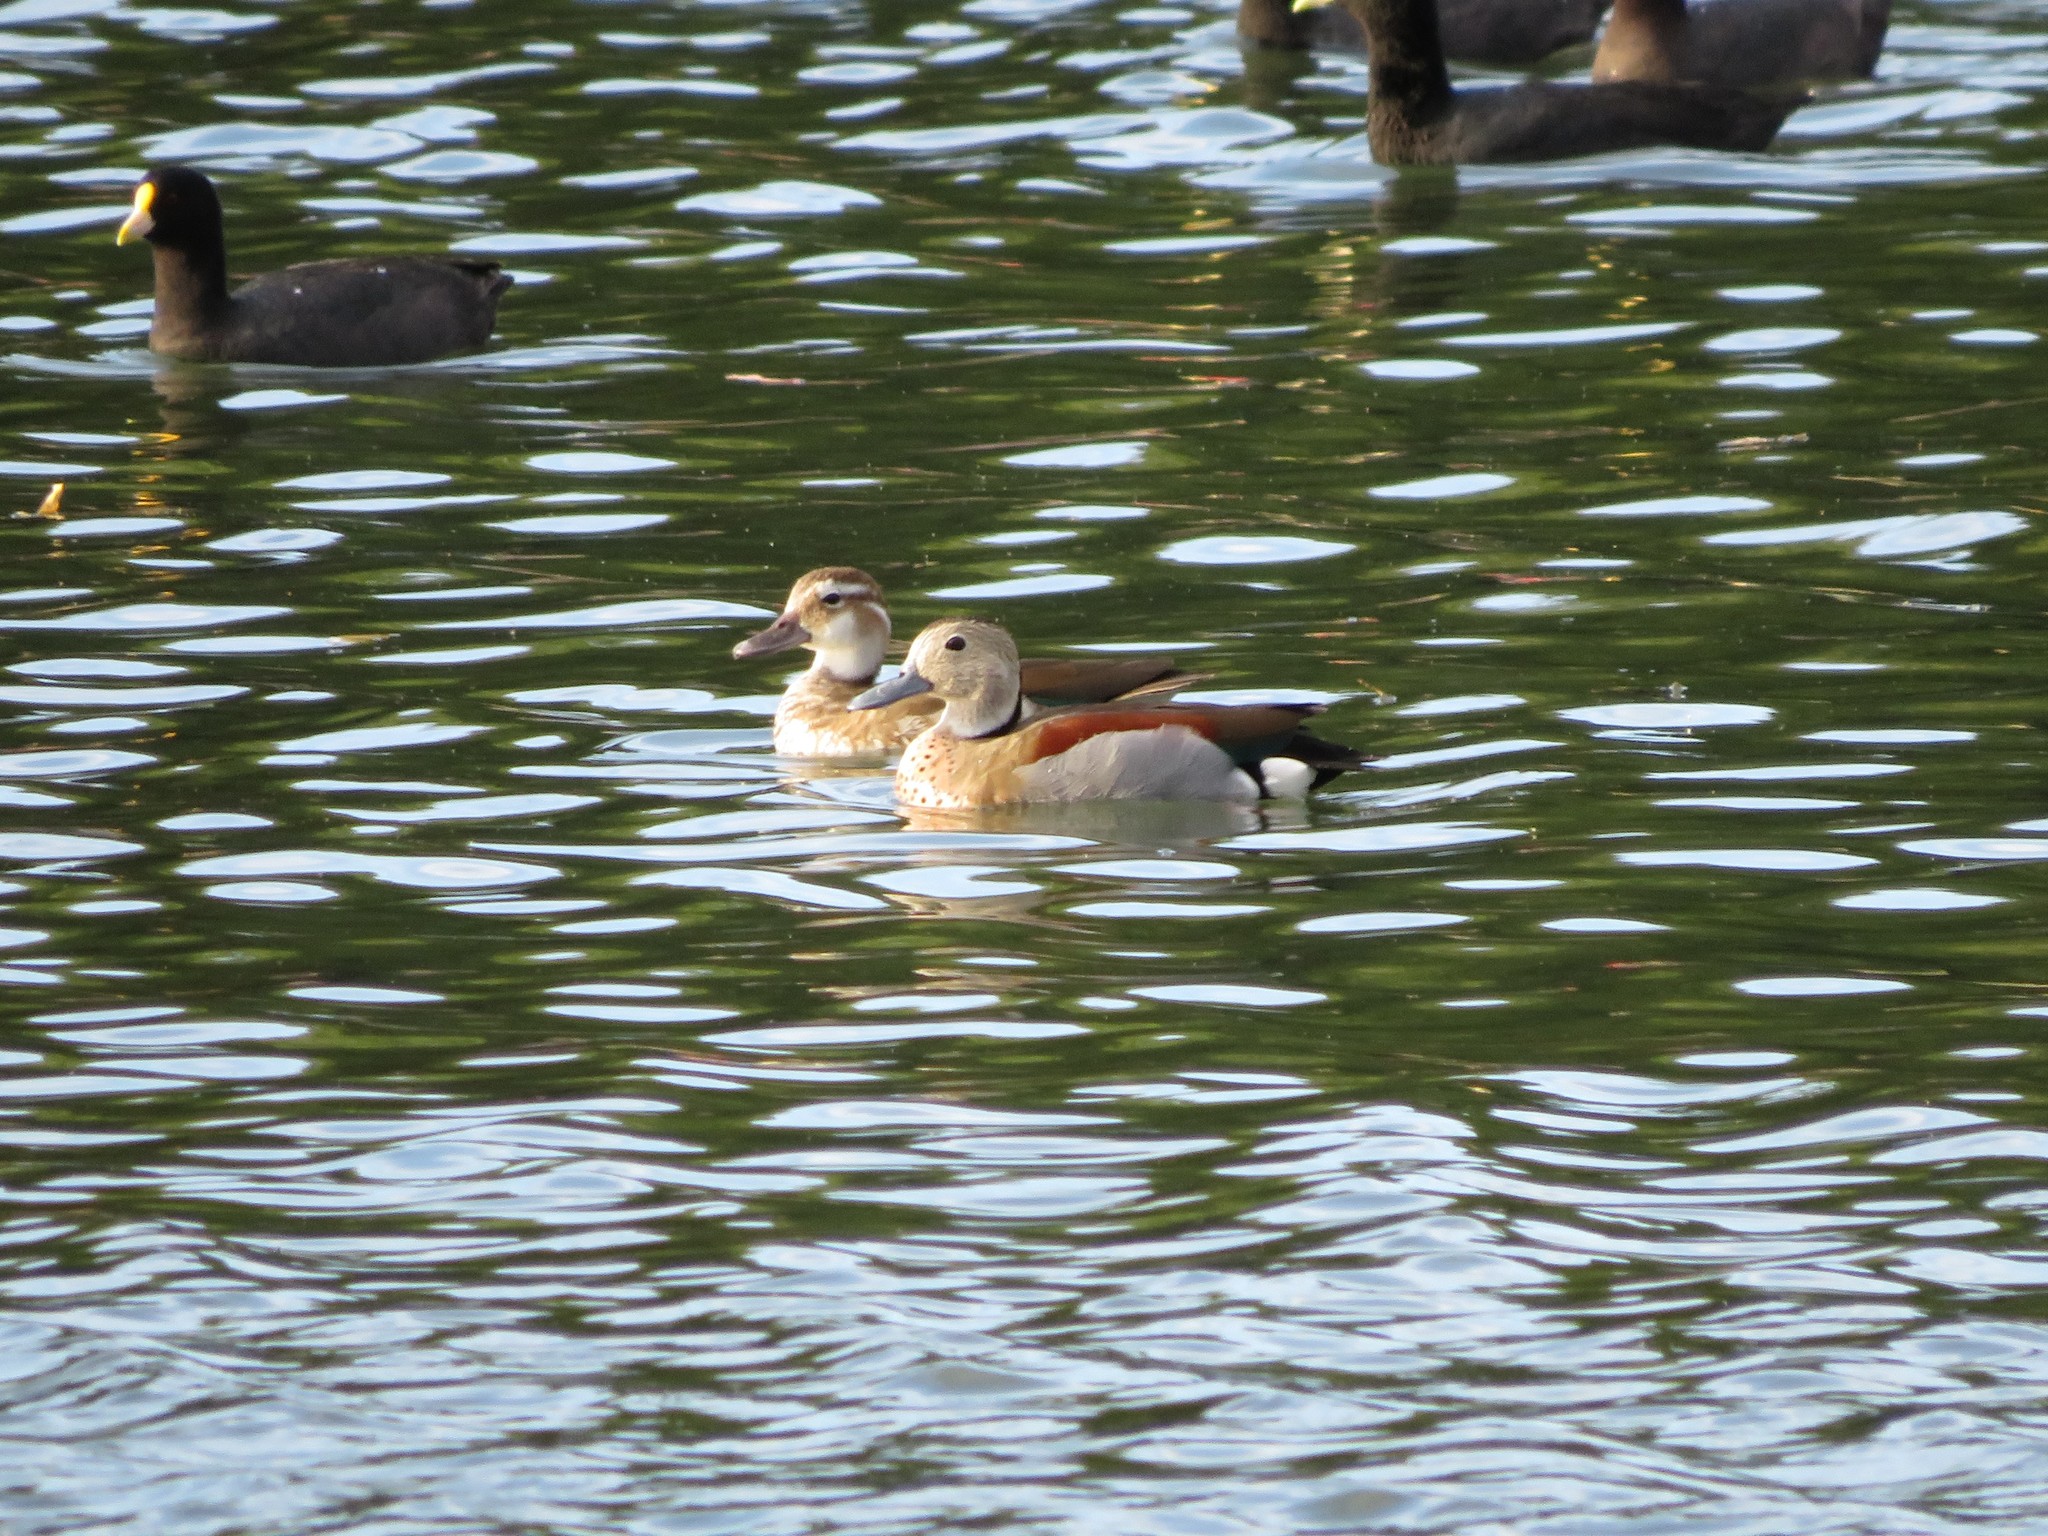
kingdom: Animalia
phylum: Chordata
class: Aves
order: Anseriformes
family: Anatidae
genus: Callonetta
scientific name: Callonetta leucophrys
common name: Ringed teal
